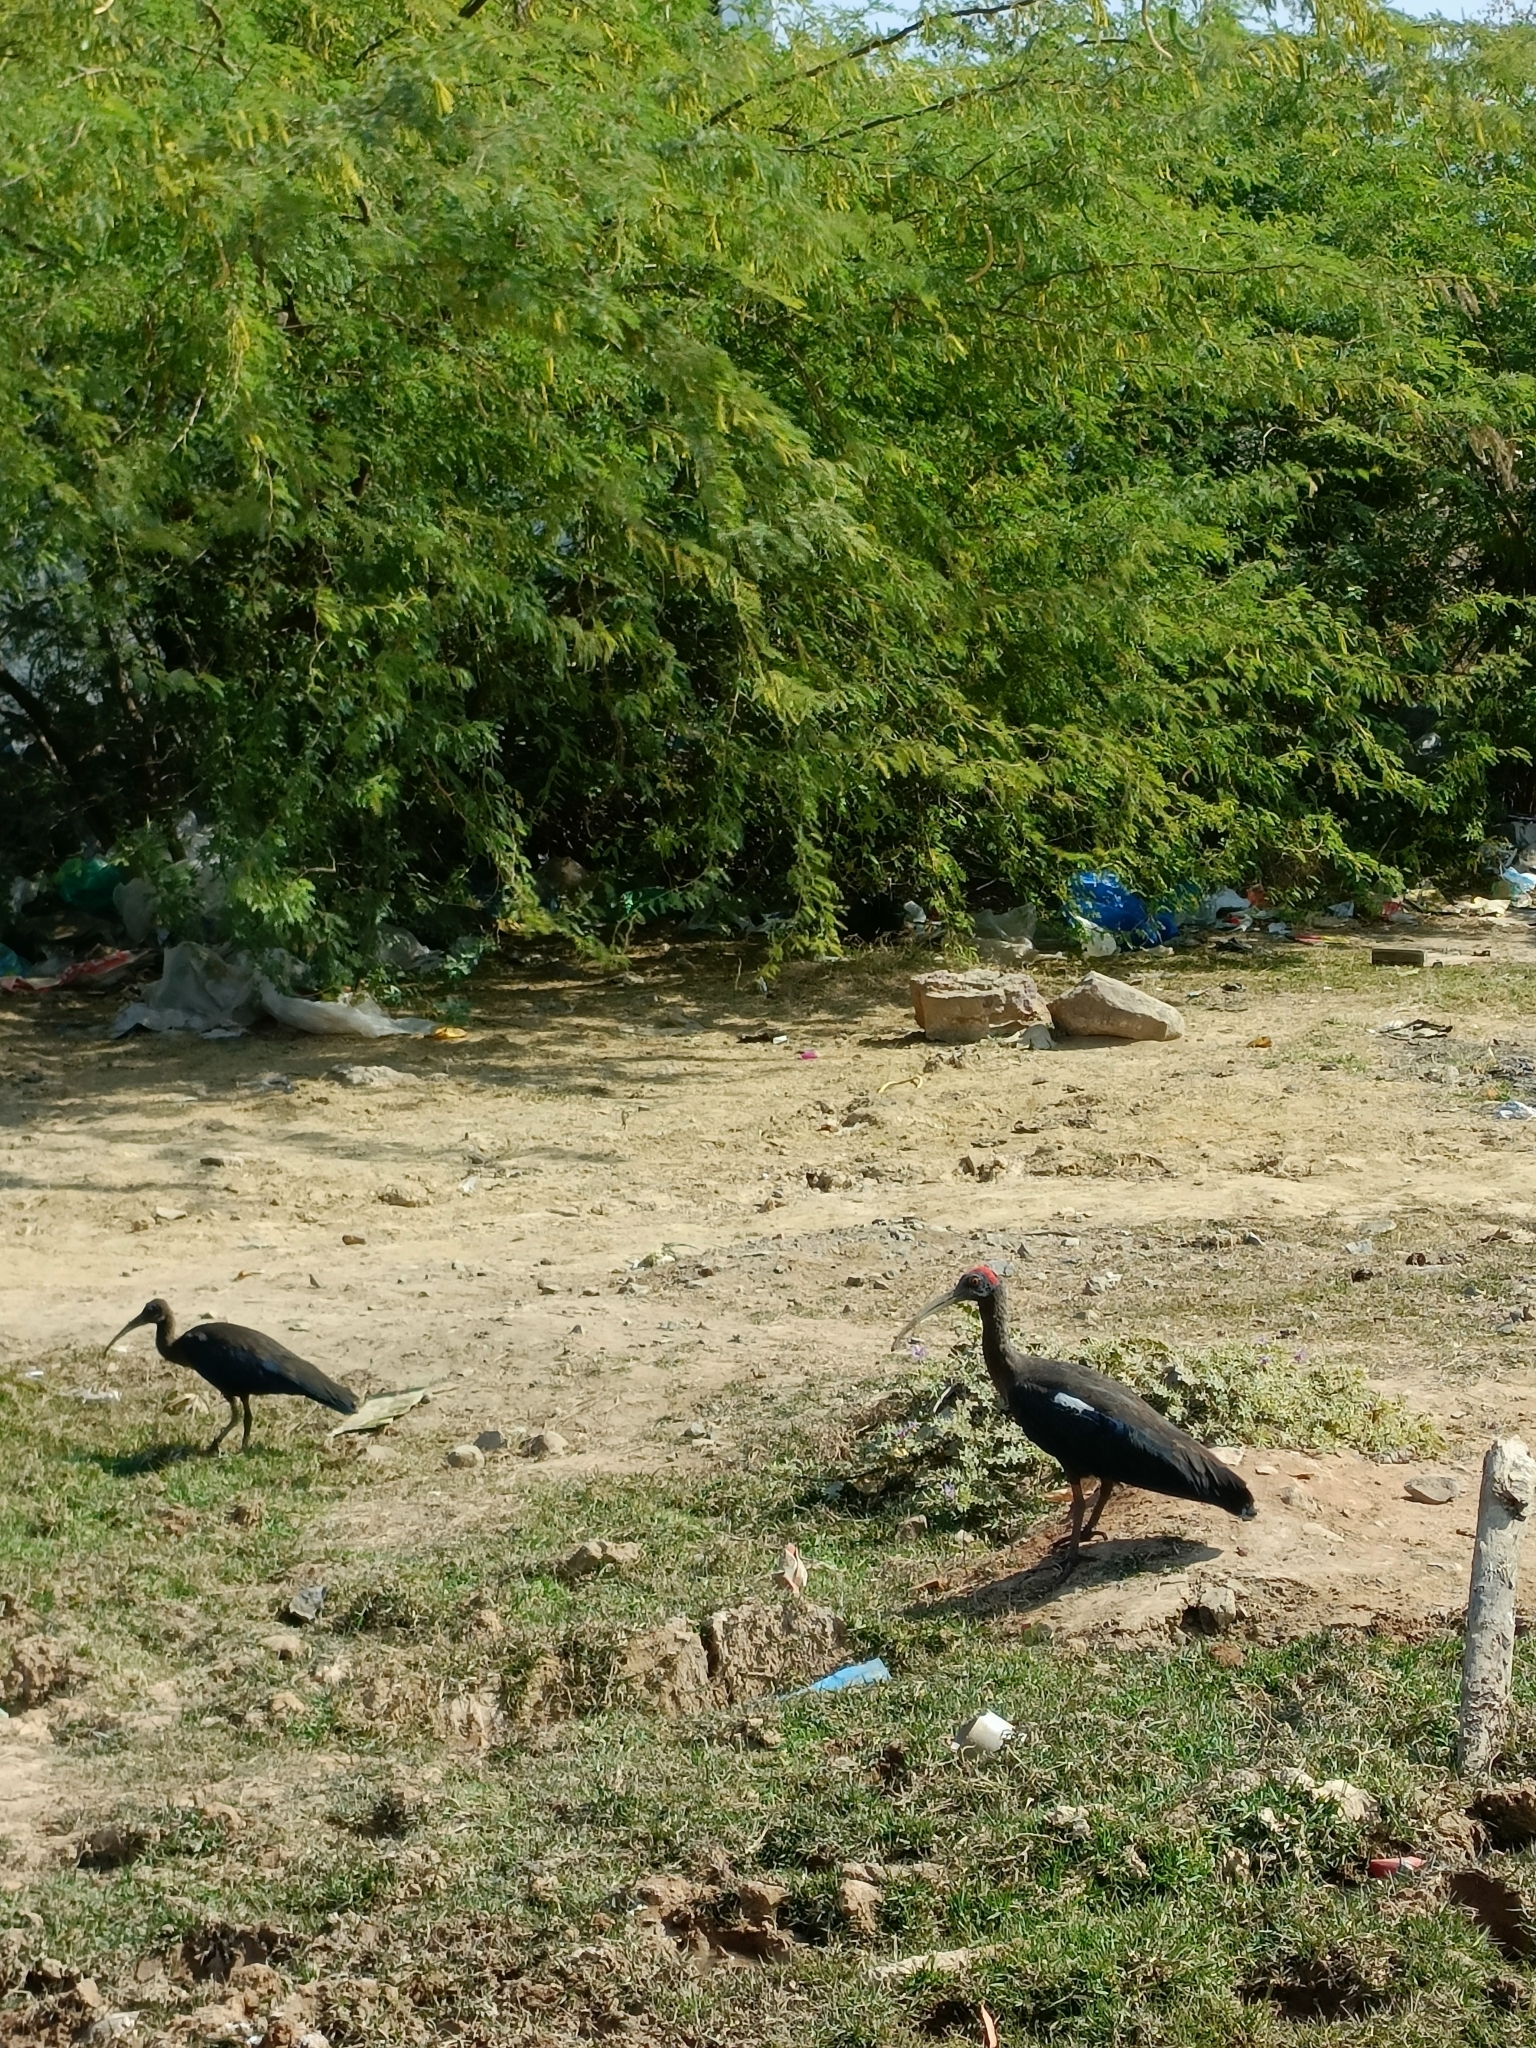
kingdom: Animalia
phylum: Chordata
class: Aves
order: Pelecaniformes
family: Threskiornithidae
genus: Pseudibis
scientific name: Pseudibis papillosa
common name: Red-naped ibis
